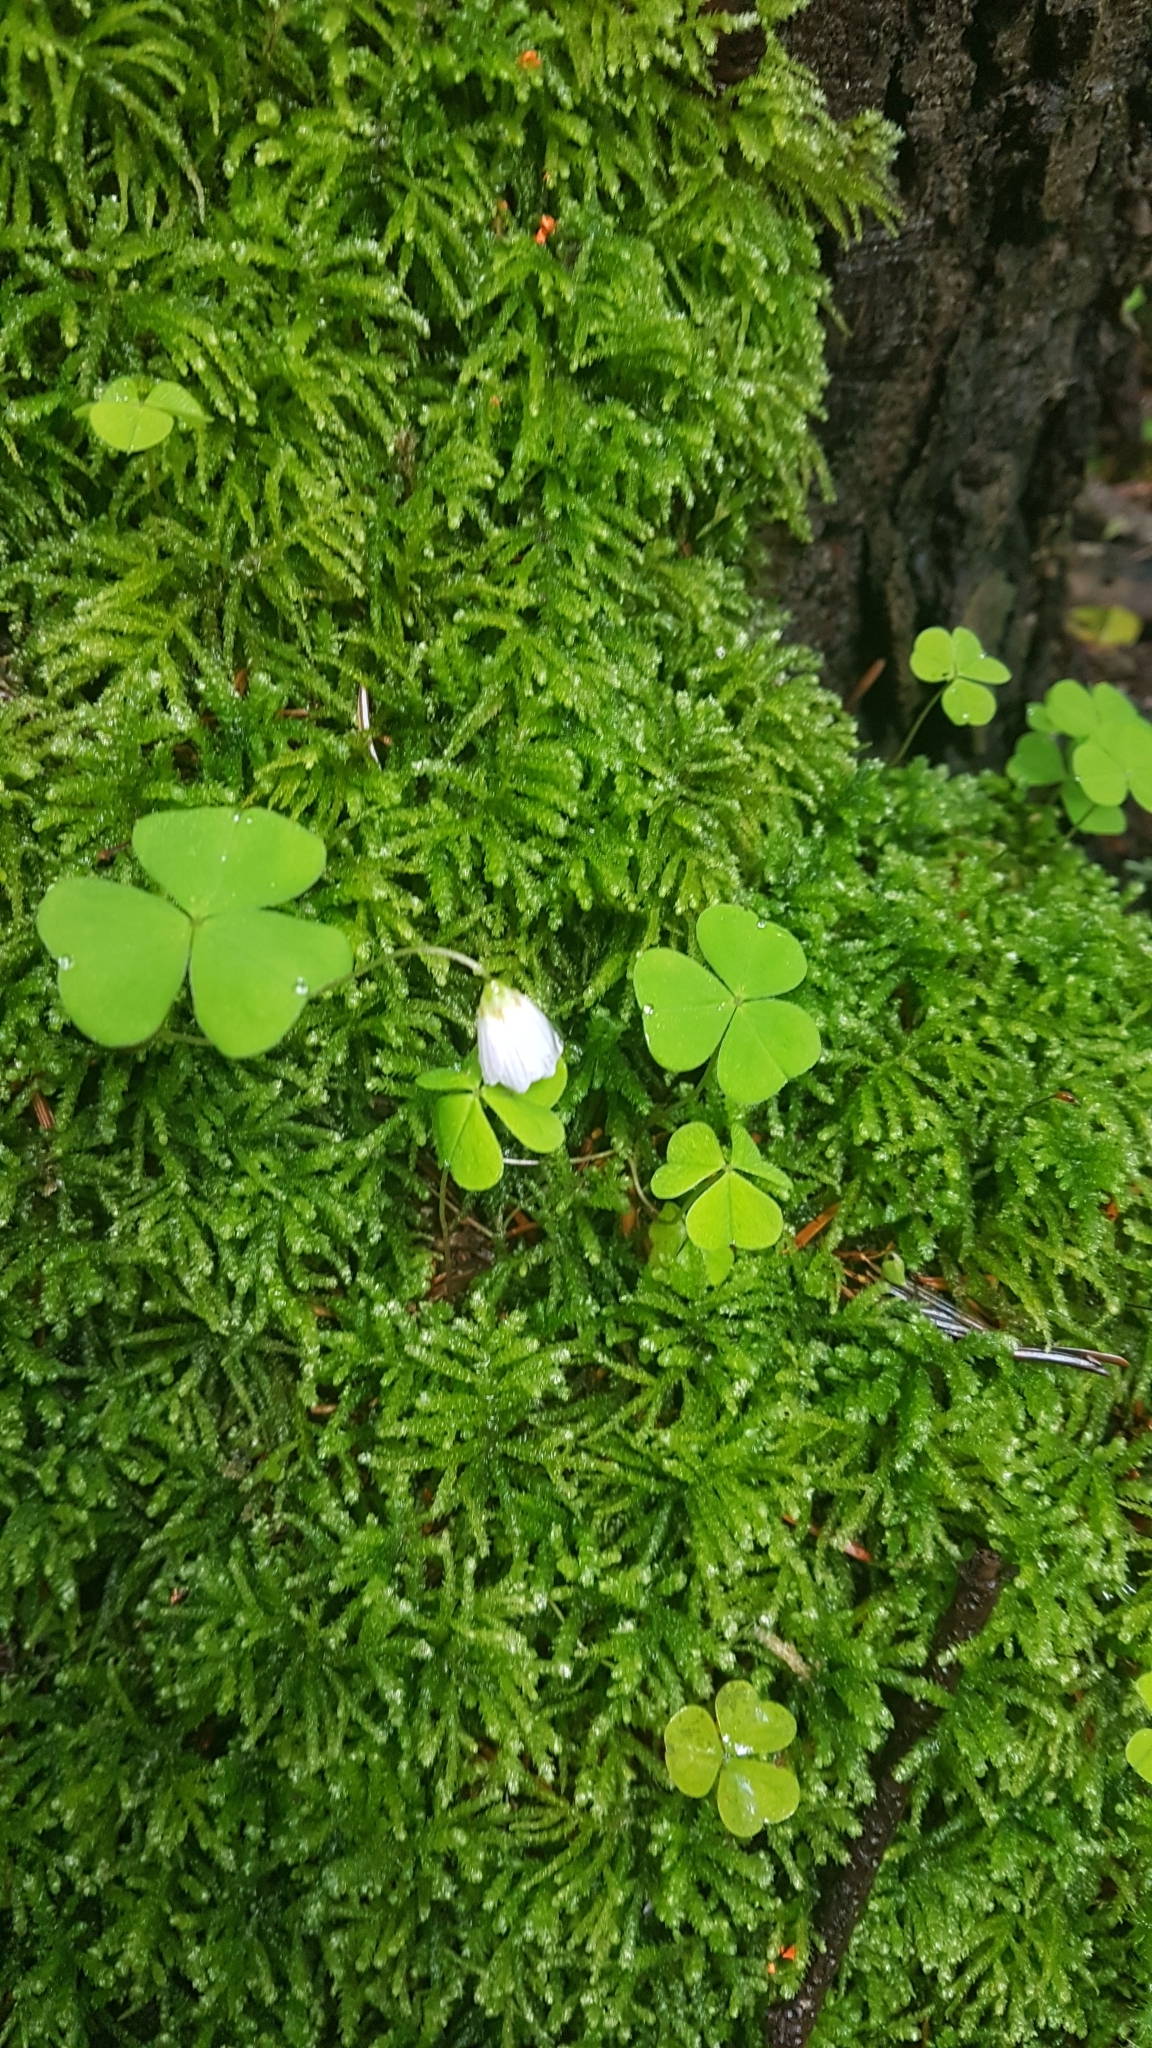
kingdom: Plantae
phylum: Tracheophyta
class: Magnoliopsida
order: Oxalidales
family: Oxalidaceae
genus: Oxalis
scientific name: Oxalis acetosella
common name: Wood-sorrel
